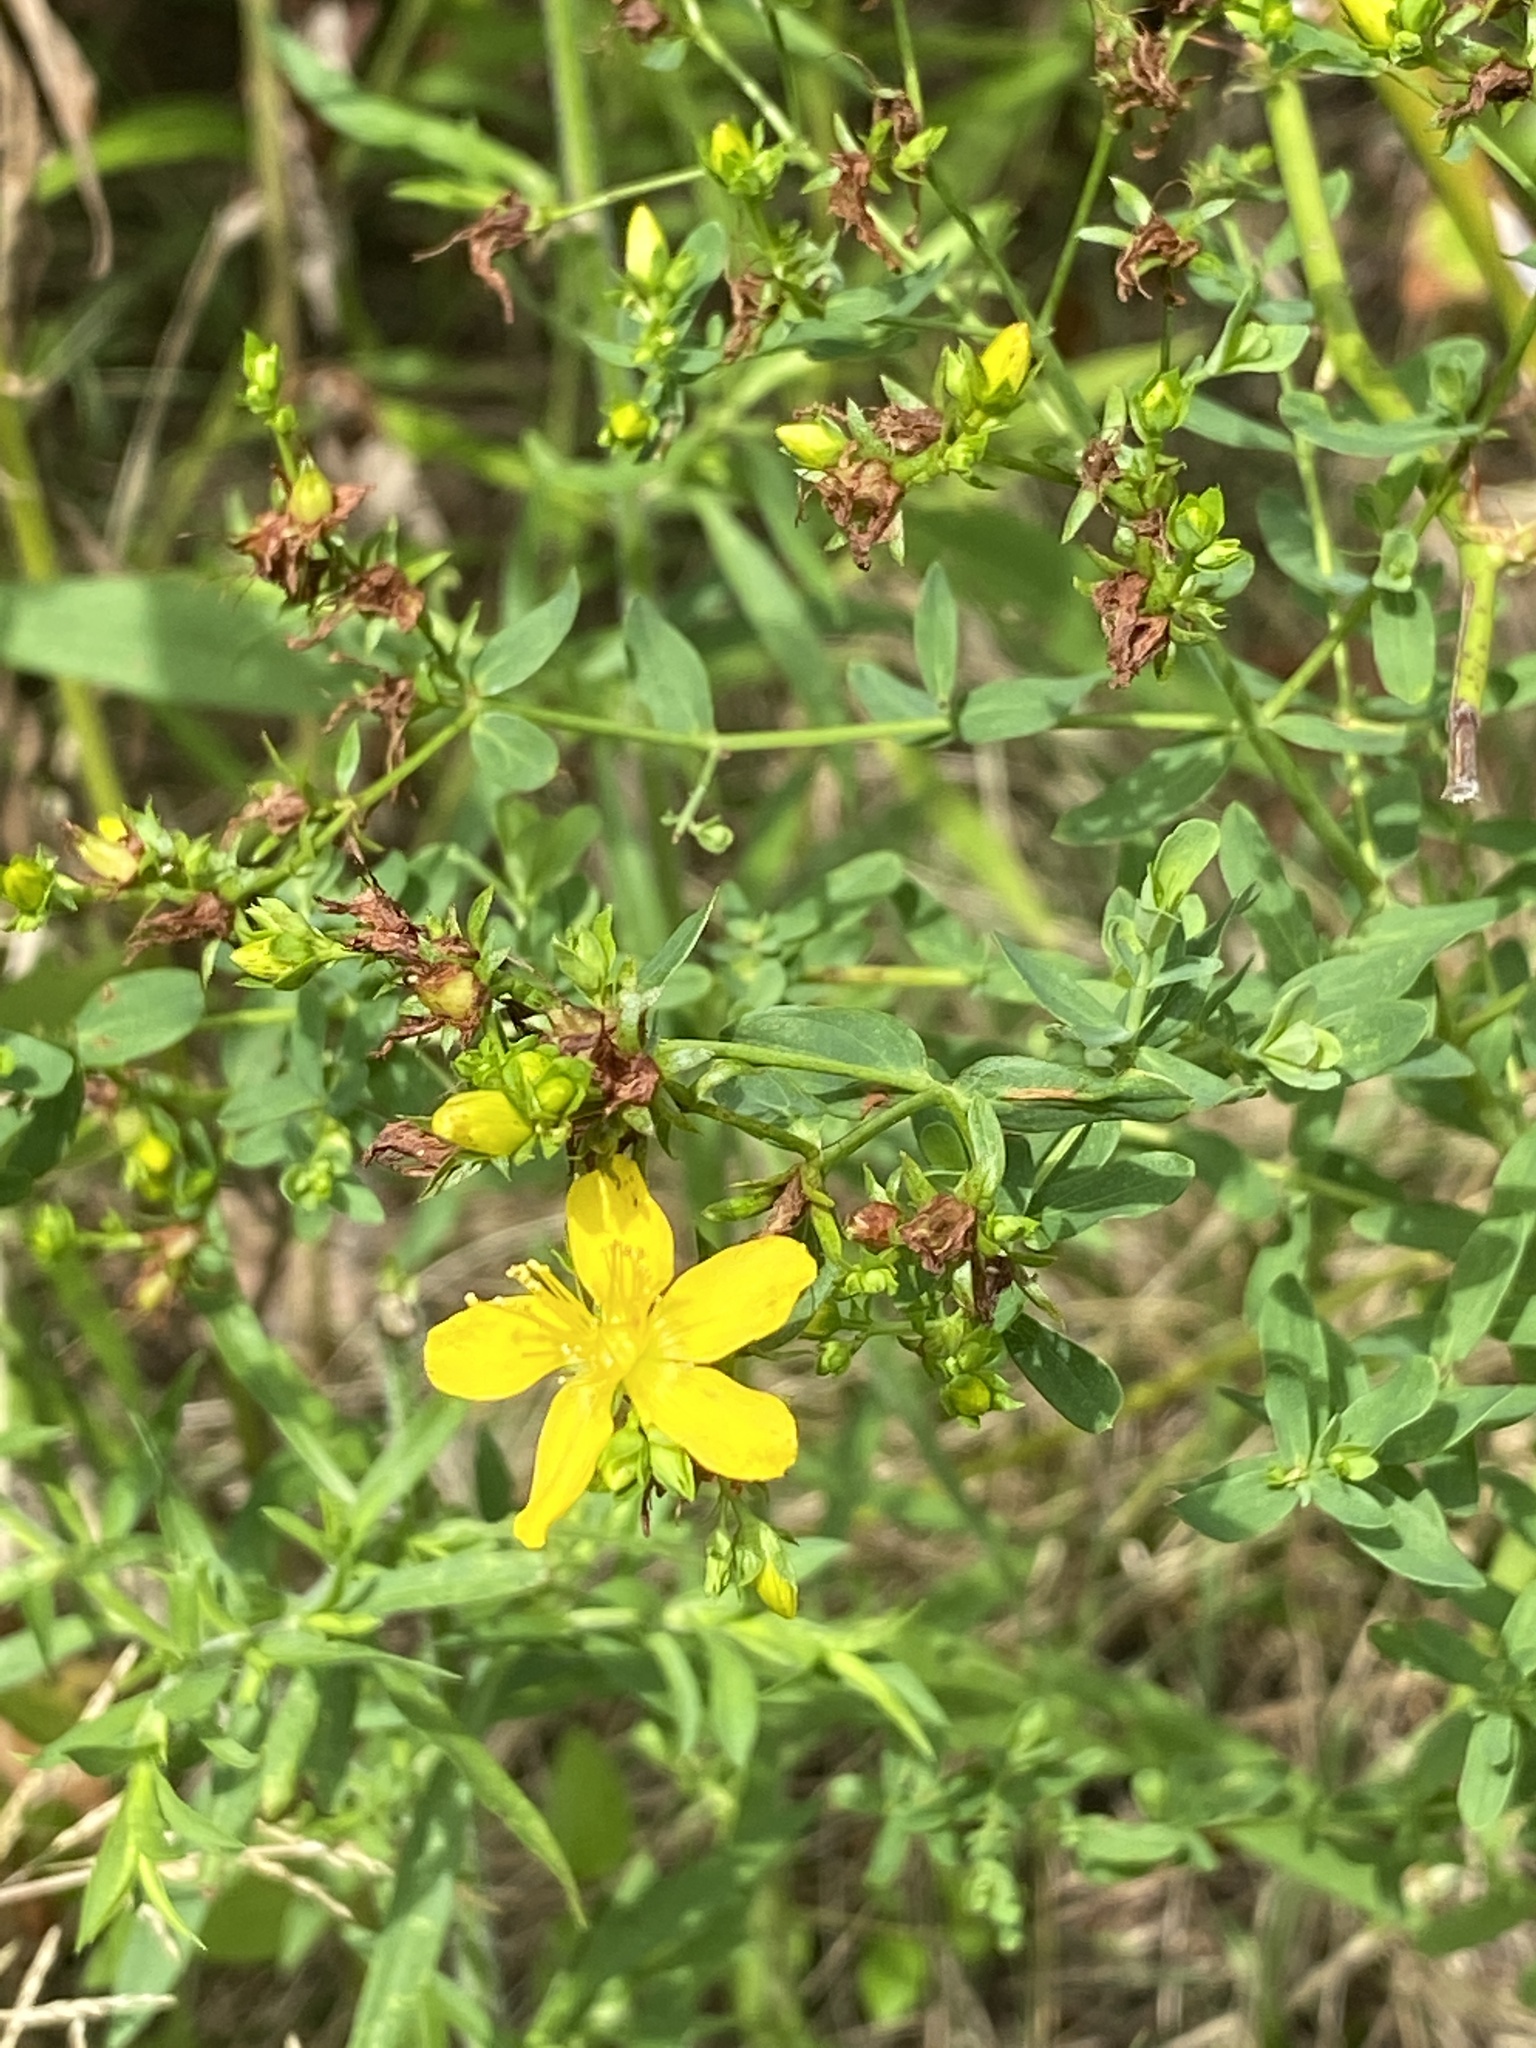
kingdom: Plantae
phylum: Tracheophyta
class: Magnoliopsida
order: Malpighiales
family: Hypericaceae
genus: Hypericum
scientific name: Hypericum perforatum
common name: Common st. johnswort
